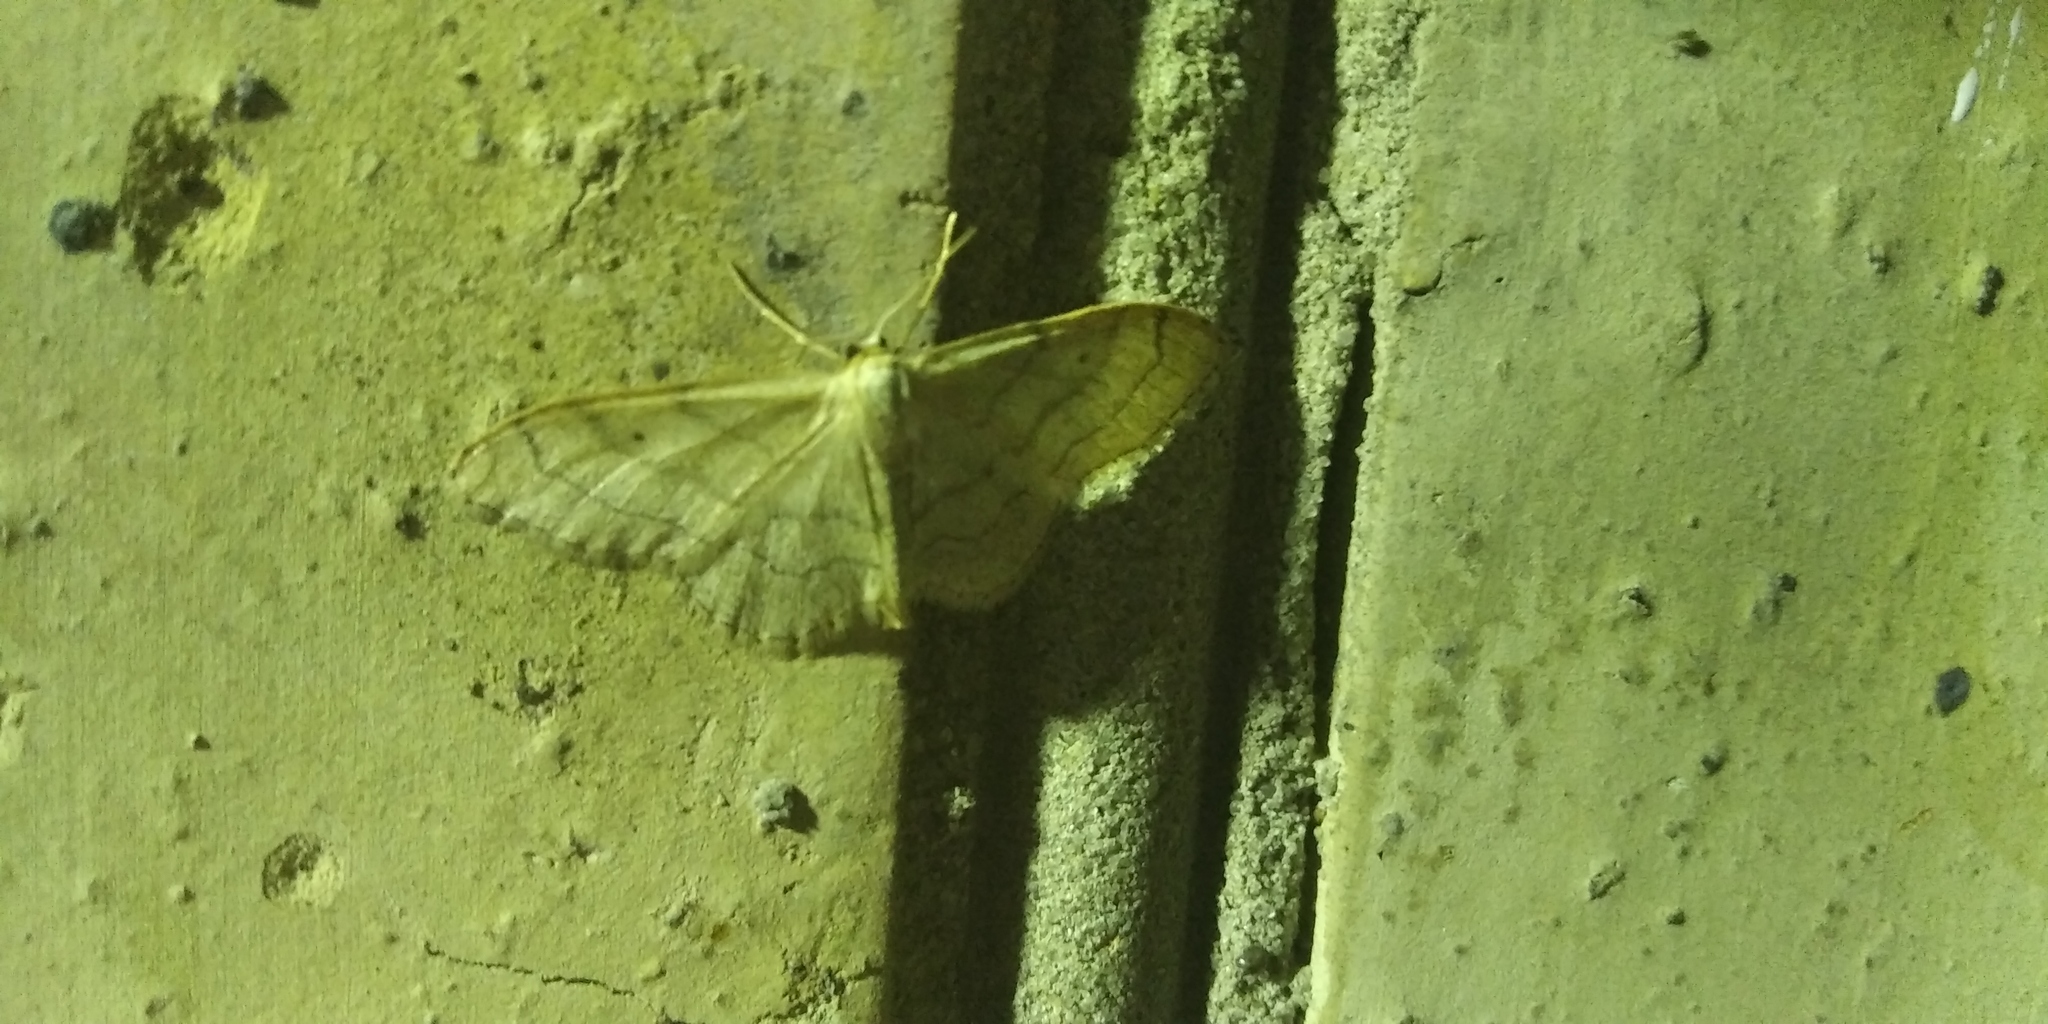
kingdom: Animalia
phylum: Arthropoda
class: Insecta
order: Lepidoptera
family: Geometridae
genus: Idaea
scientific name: Idaea aversata
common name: Riband wave
